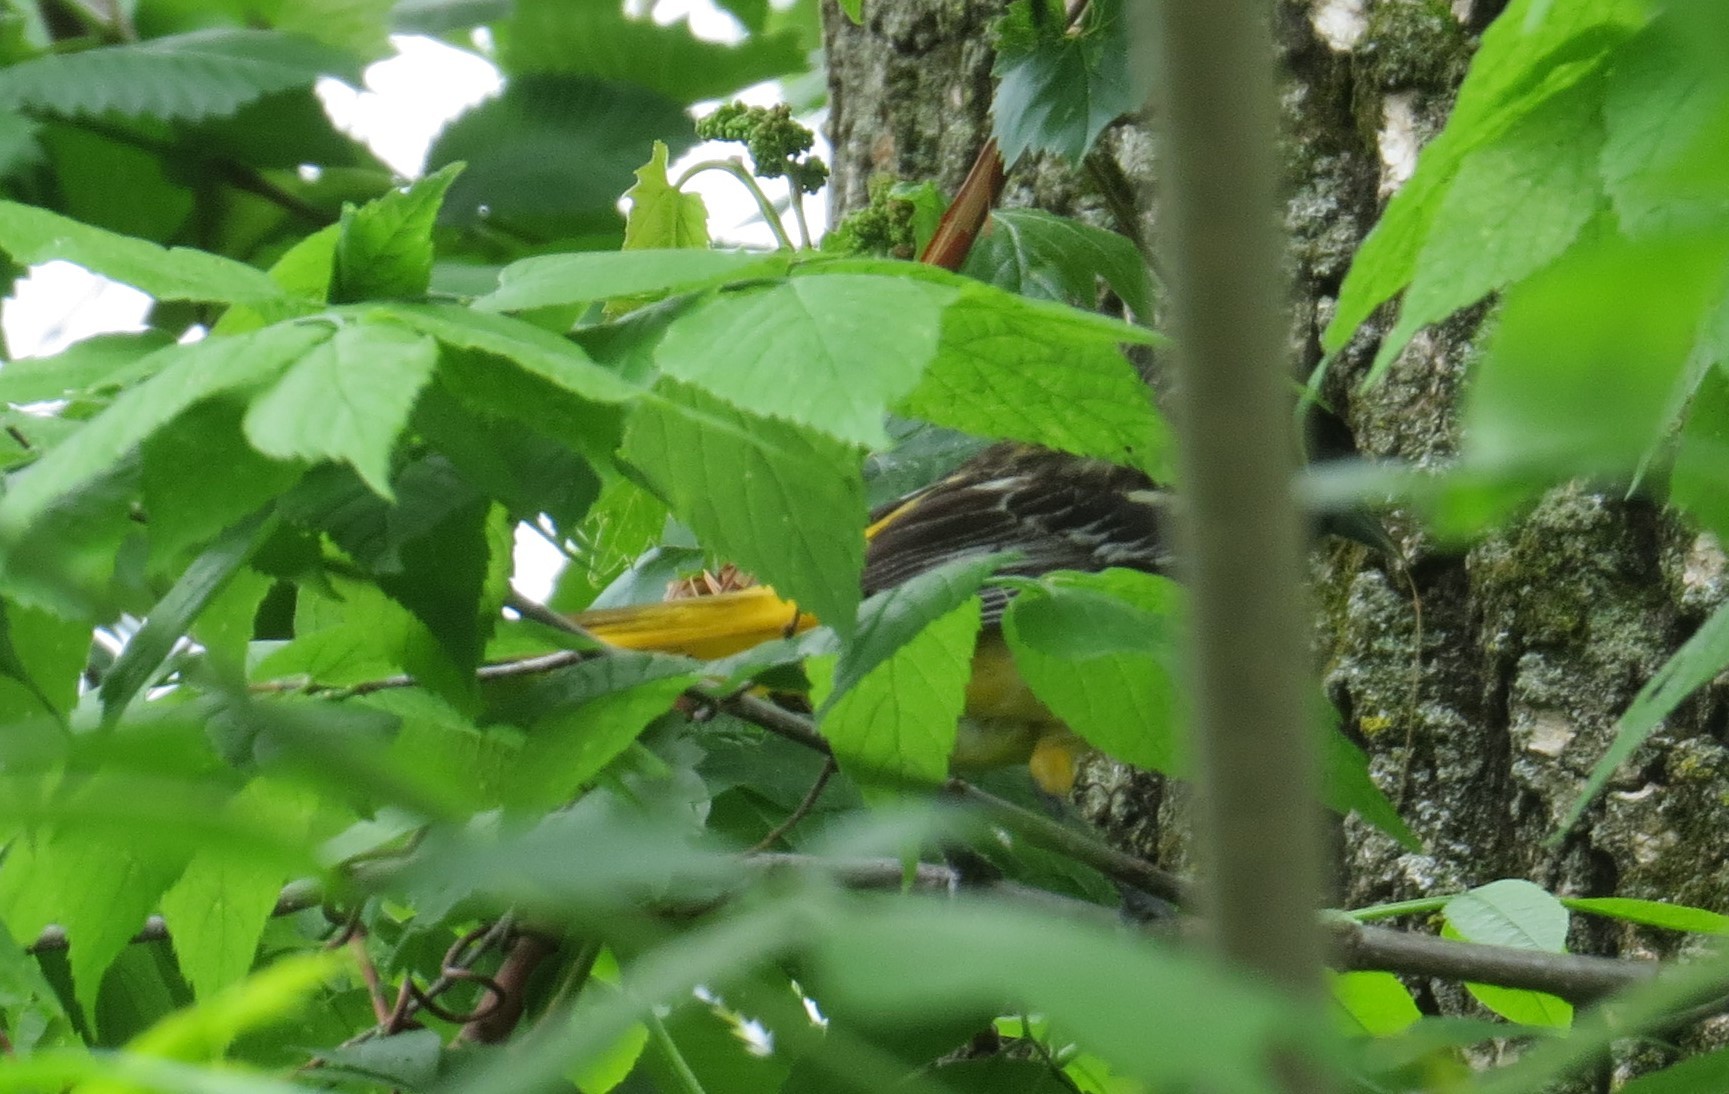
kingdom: Animalia
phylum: Chordata
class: Aves
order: Passeriformes
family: Icteridae
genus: Icterus
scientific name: Icterus galbula
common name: Baltimore oriole
